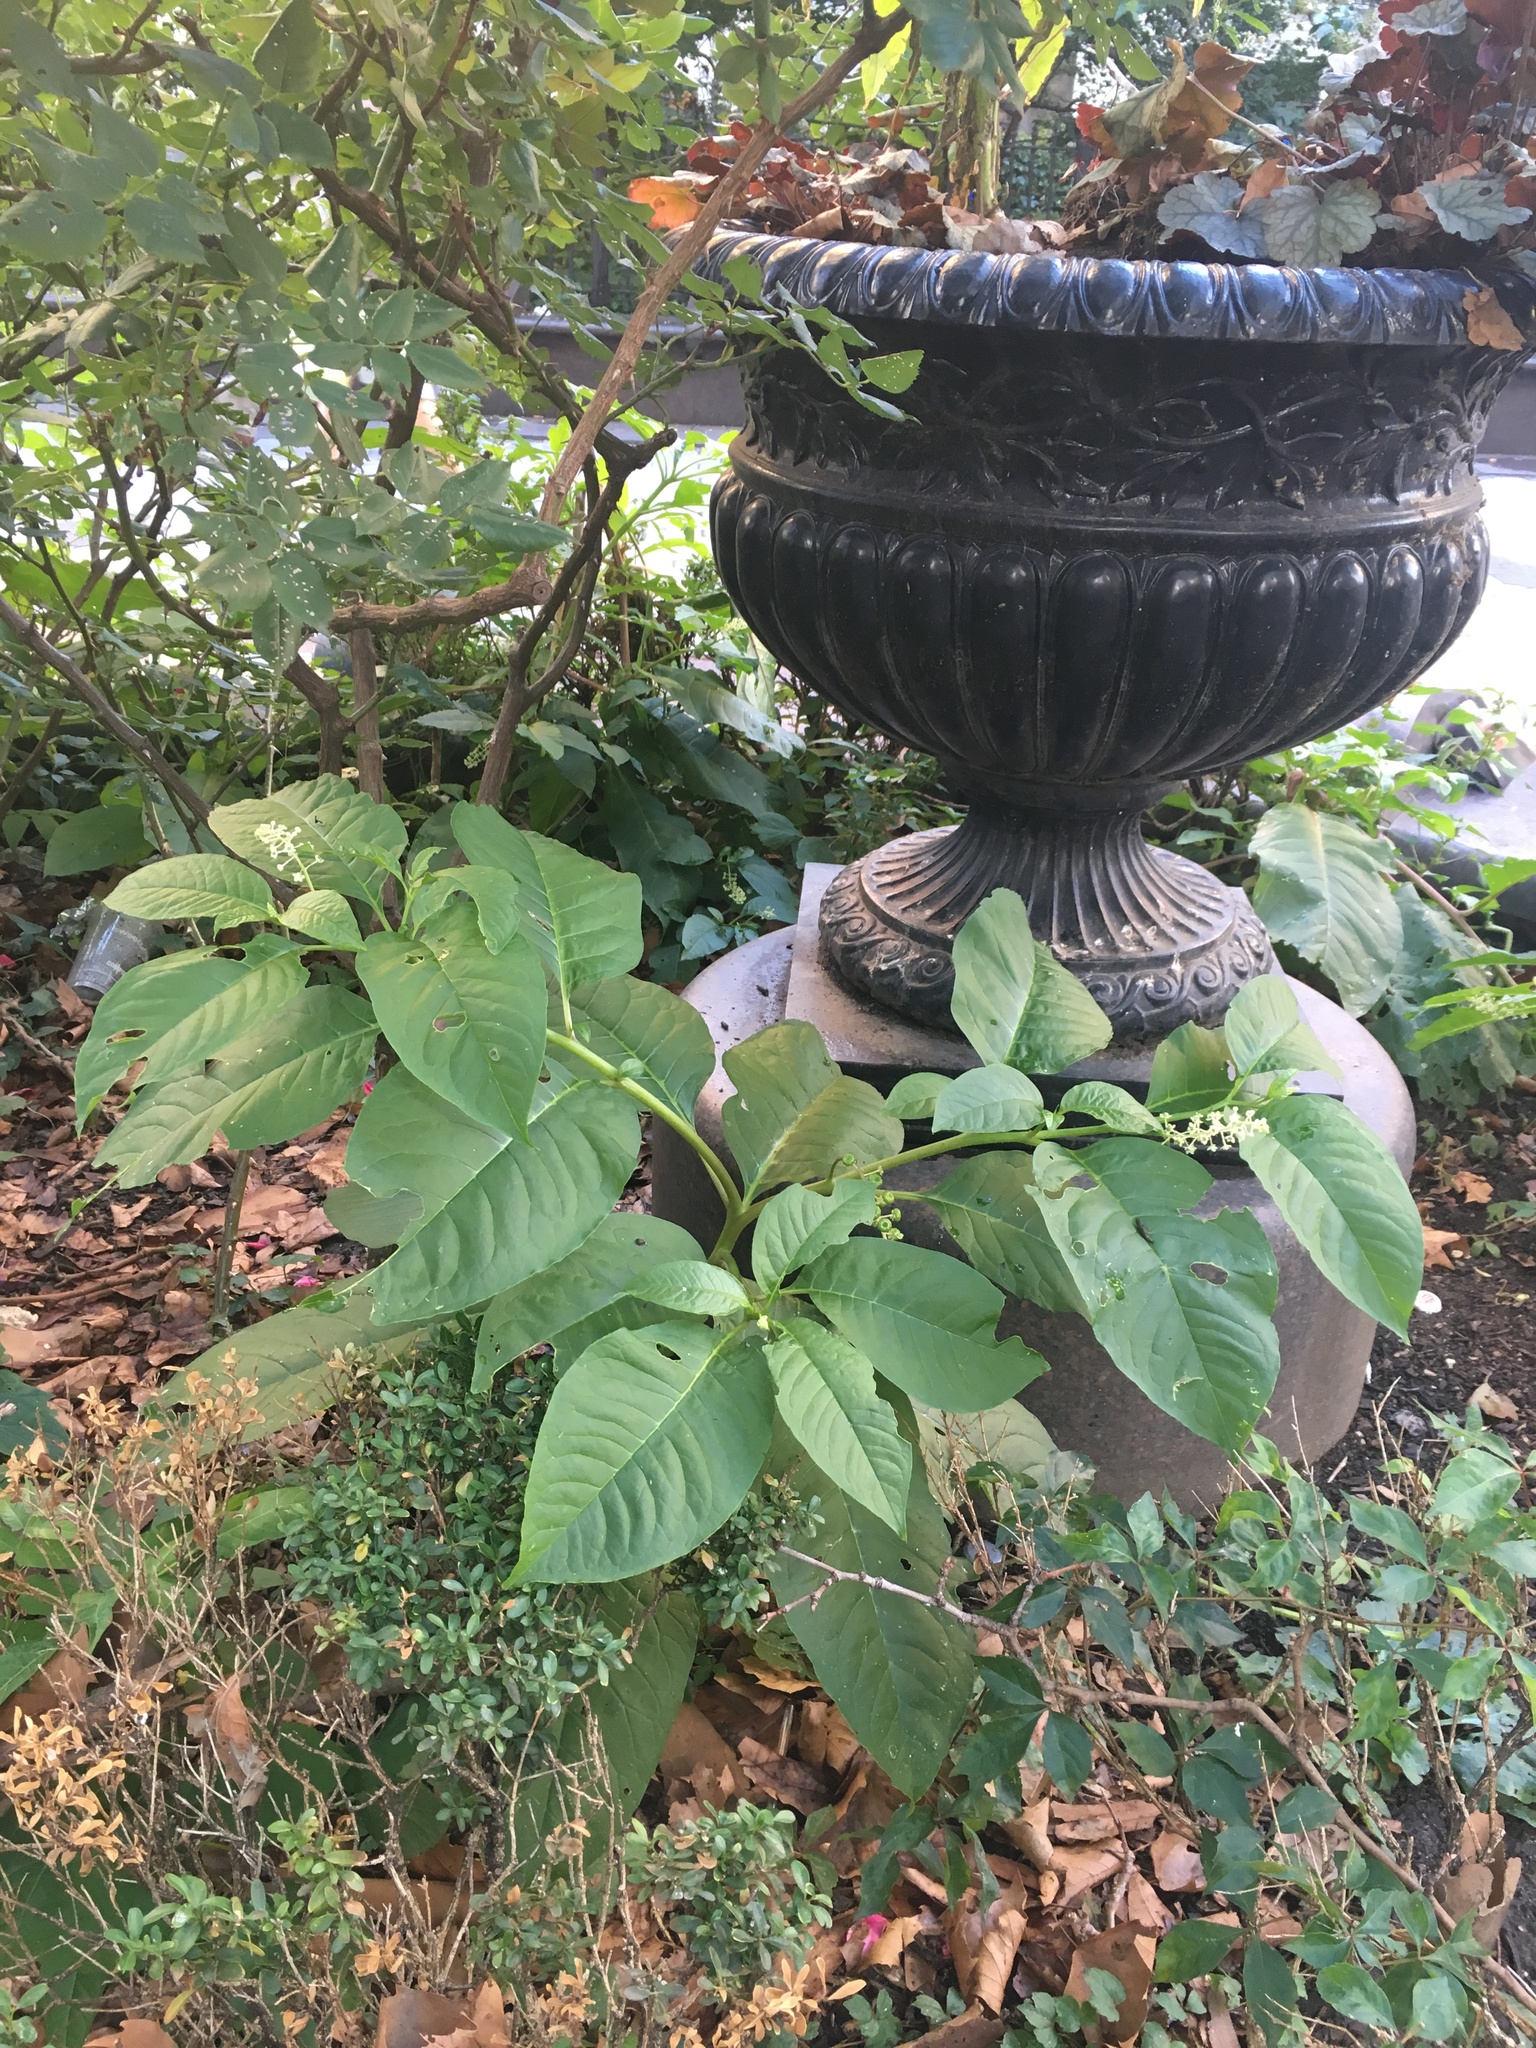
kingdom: Plantae
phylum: Tracheophyta
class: Magnoliopsida
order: Caryophyllales
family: Phytolaccaceae
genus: Phytolacca
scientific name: Phytolacca americana
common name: American pokeweed
